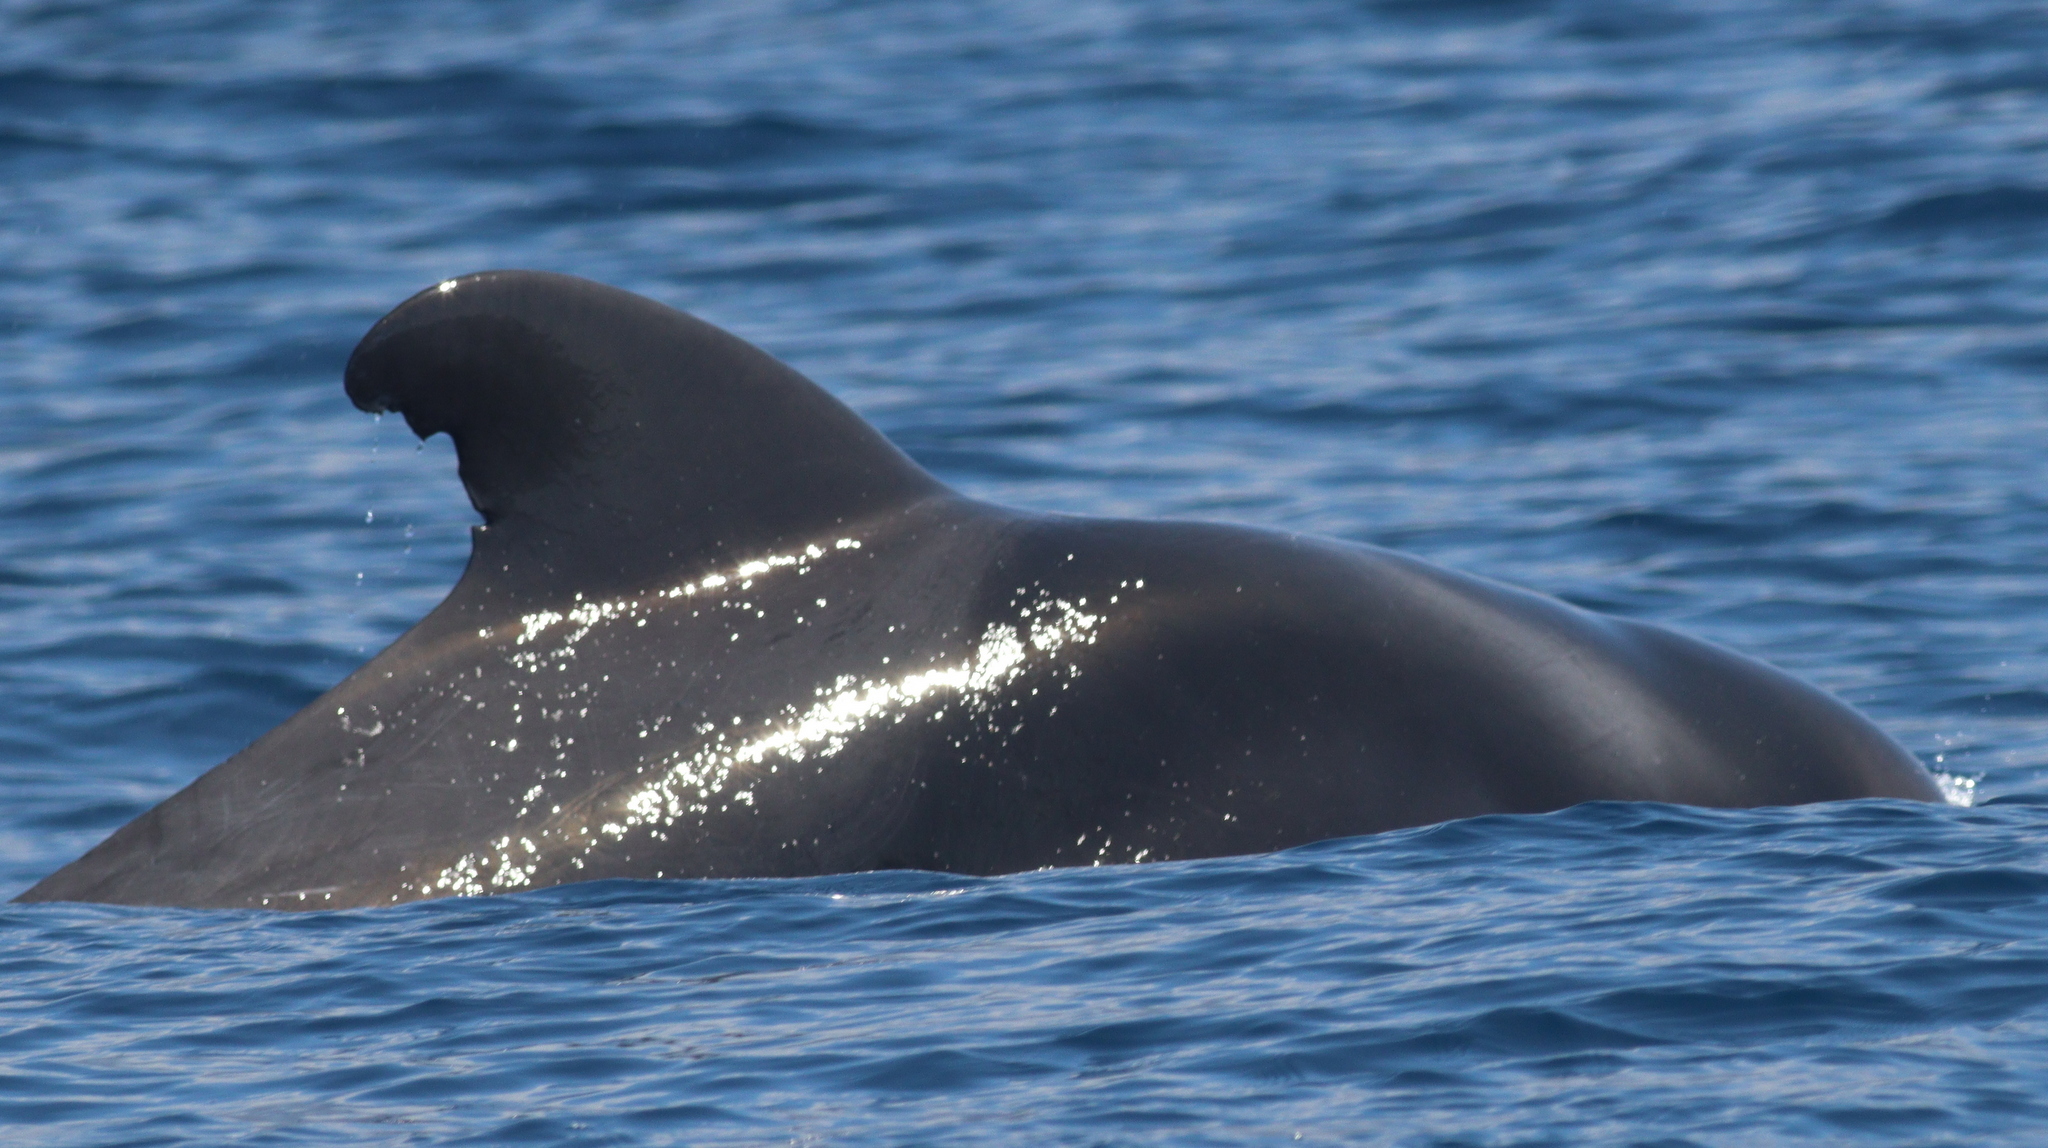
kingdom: Animalia
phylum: Chordata
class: Mammalia
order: Cetacea
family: Delphinidae
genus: Globicephala
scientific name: Globicephala macrorhynchus
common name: Short-finned pilot whale
